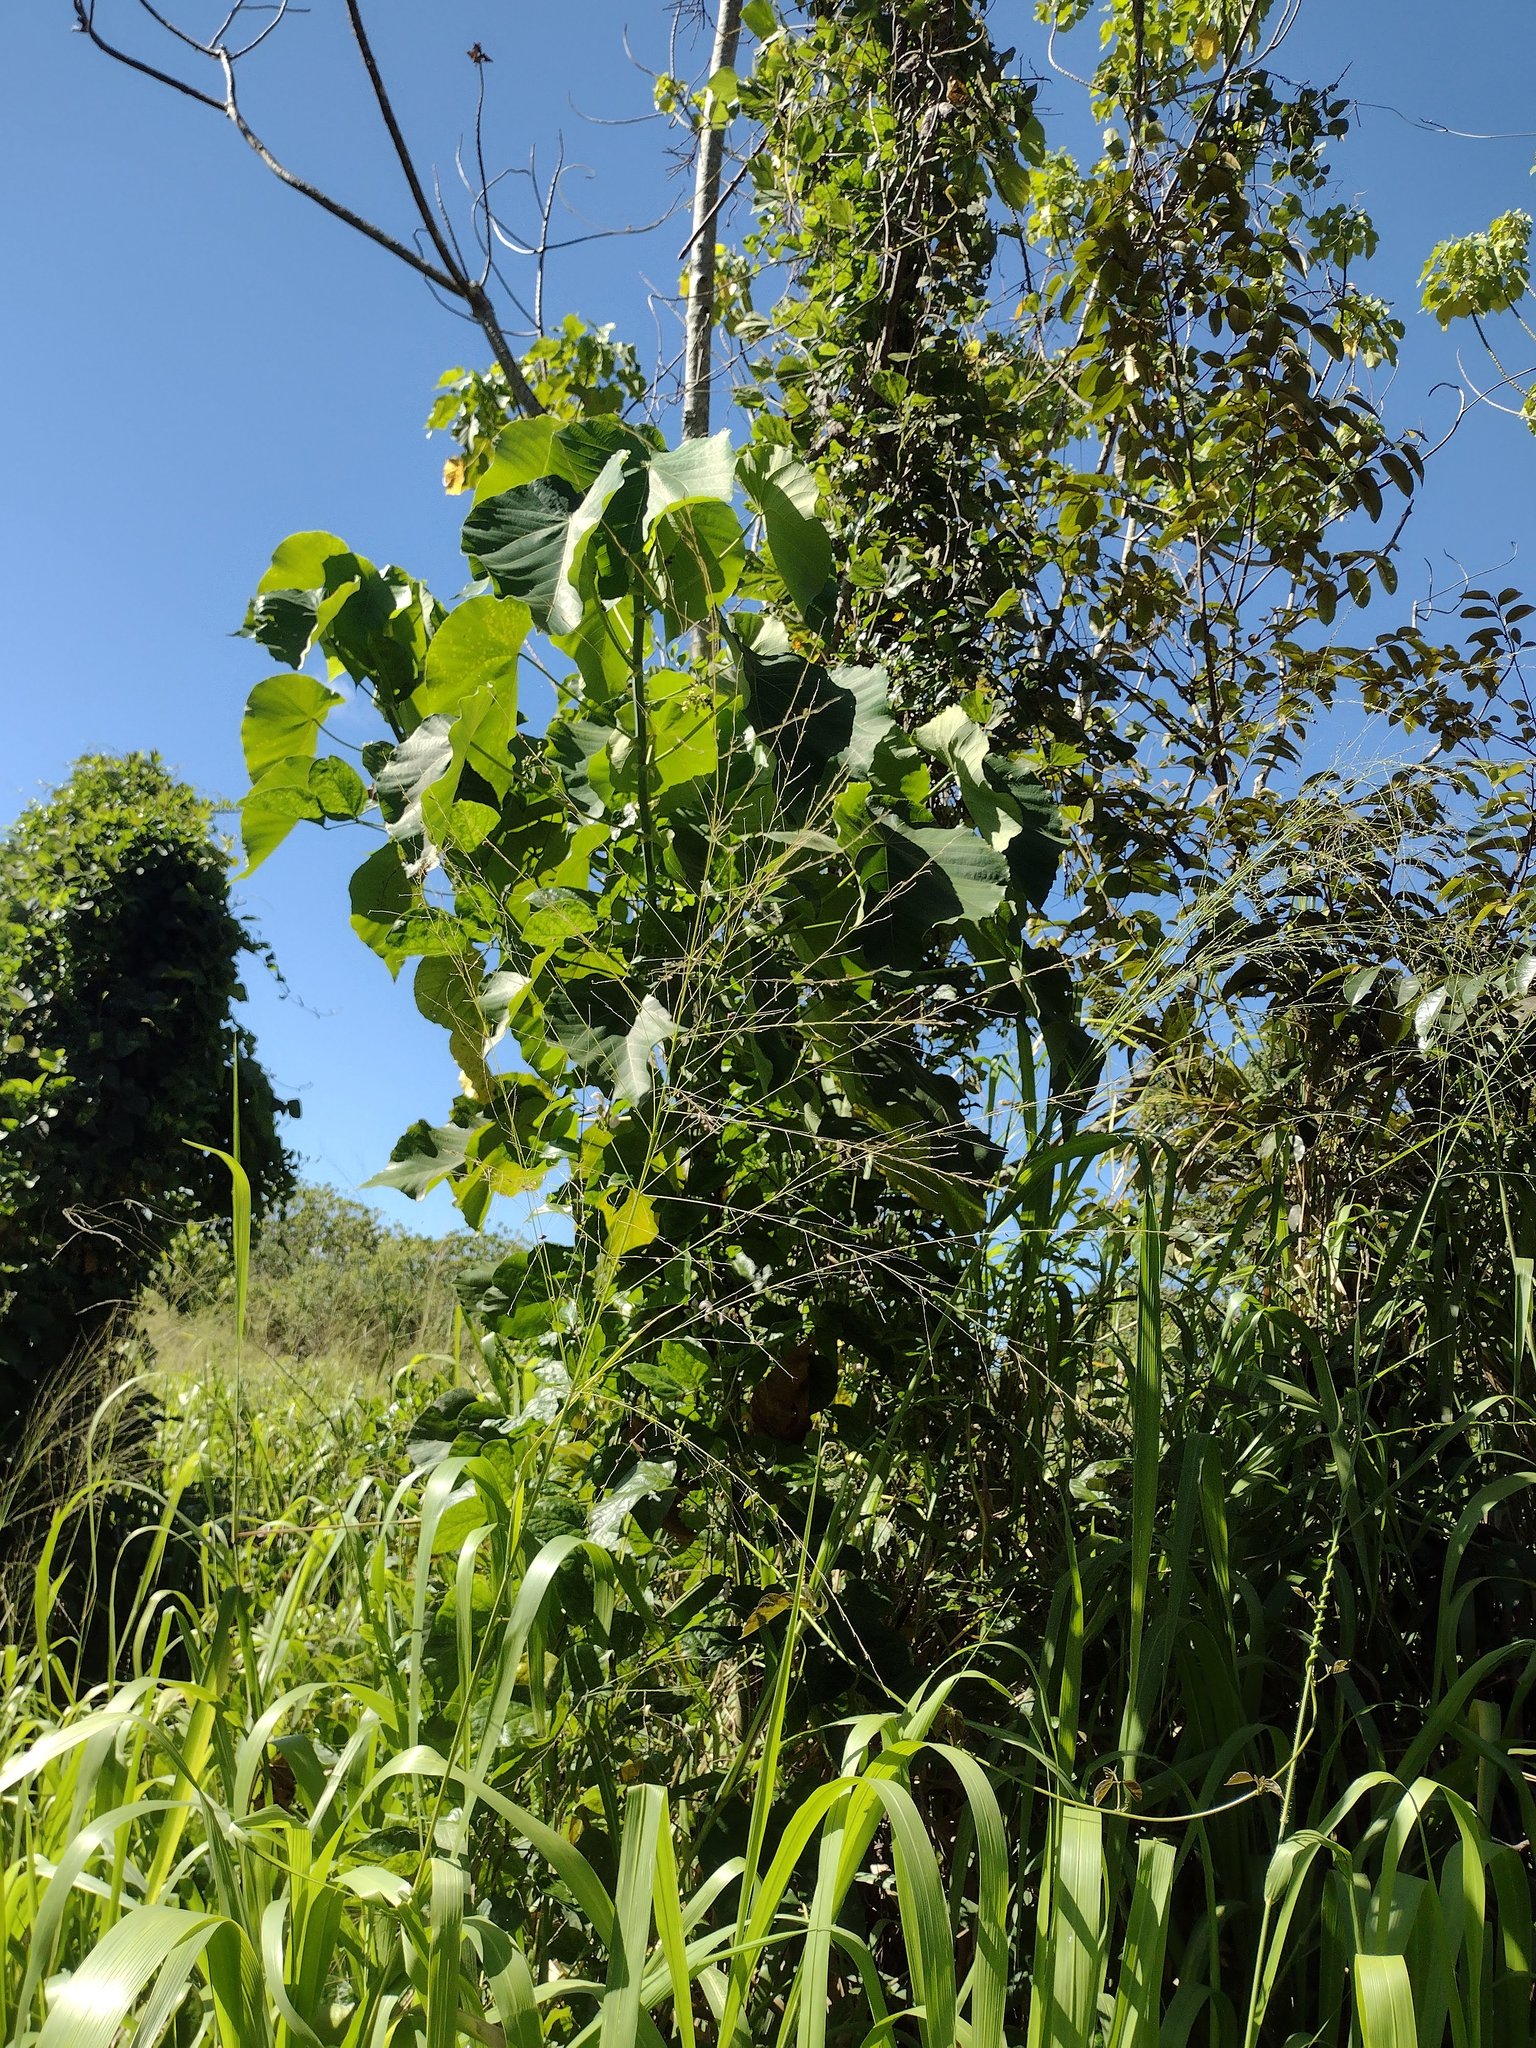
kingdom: Plantae
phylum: Tracheophyta
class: Magnoliopsida
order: Malpighiales
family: Euphorbiaceae
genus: Macaranga
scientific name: Macaranga tanarius
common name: Parasol leaf tree
